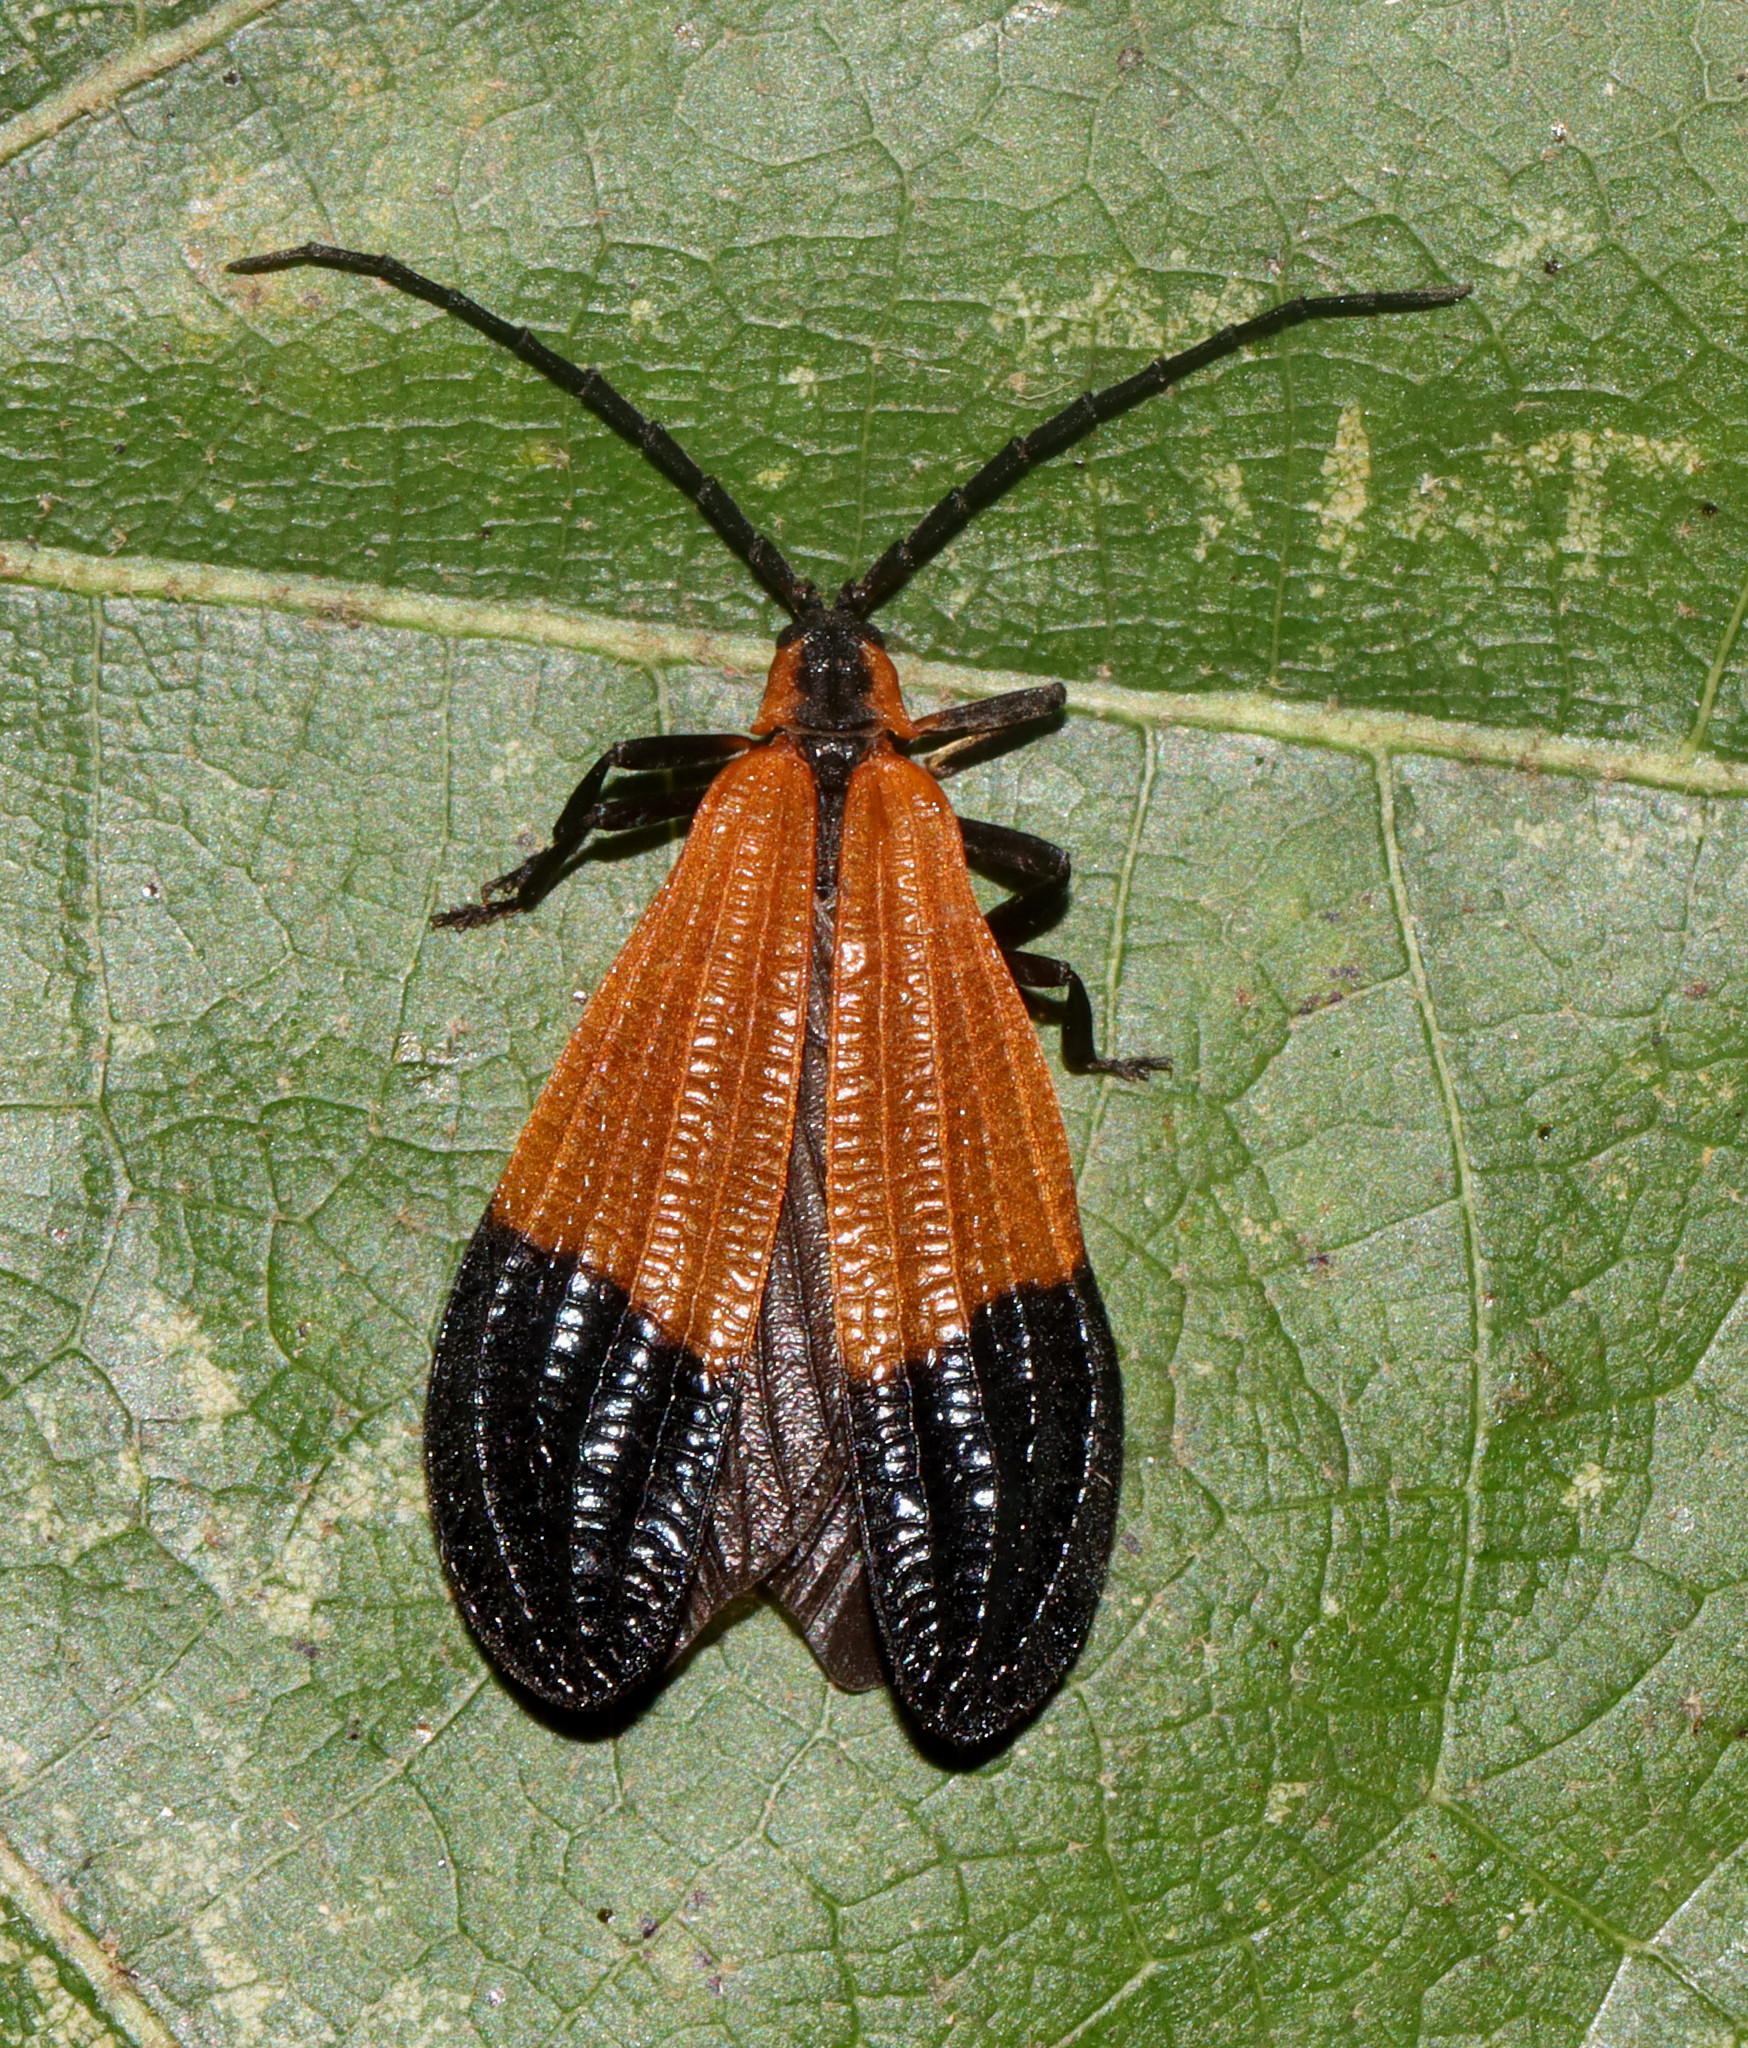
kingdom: Animalia
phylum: Arthropoda
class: Insecta
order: Coleoptera
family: Lycidae
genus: Calopteron
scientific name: Calopteron terminale
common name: End band net-winged beetle
